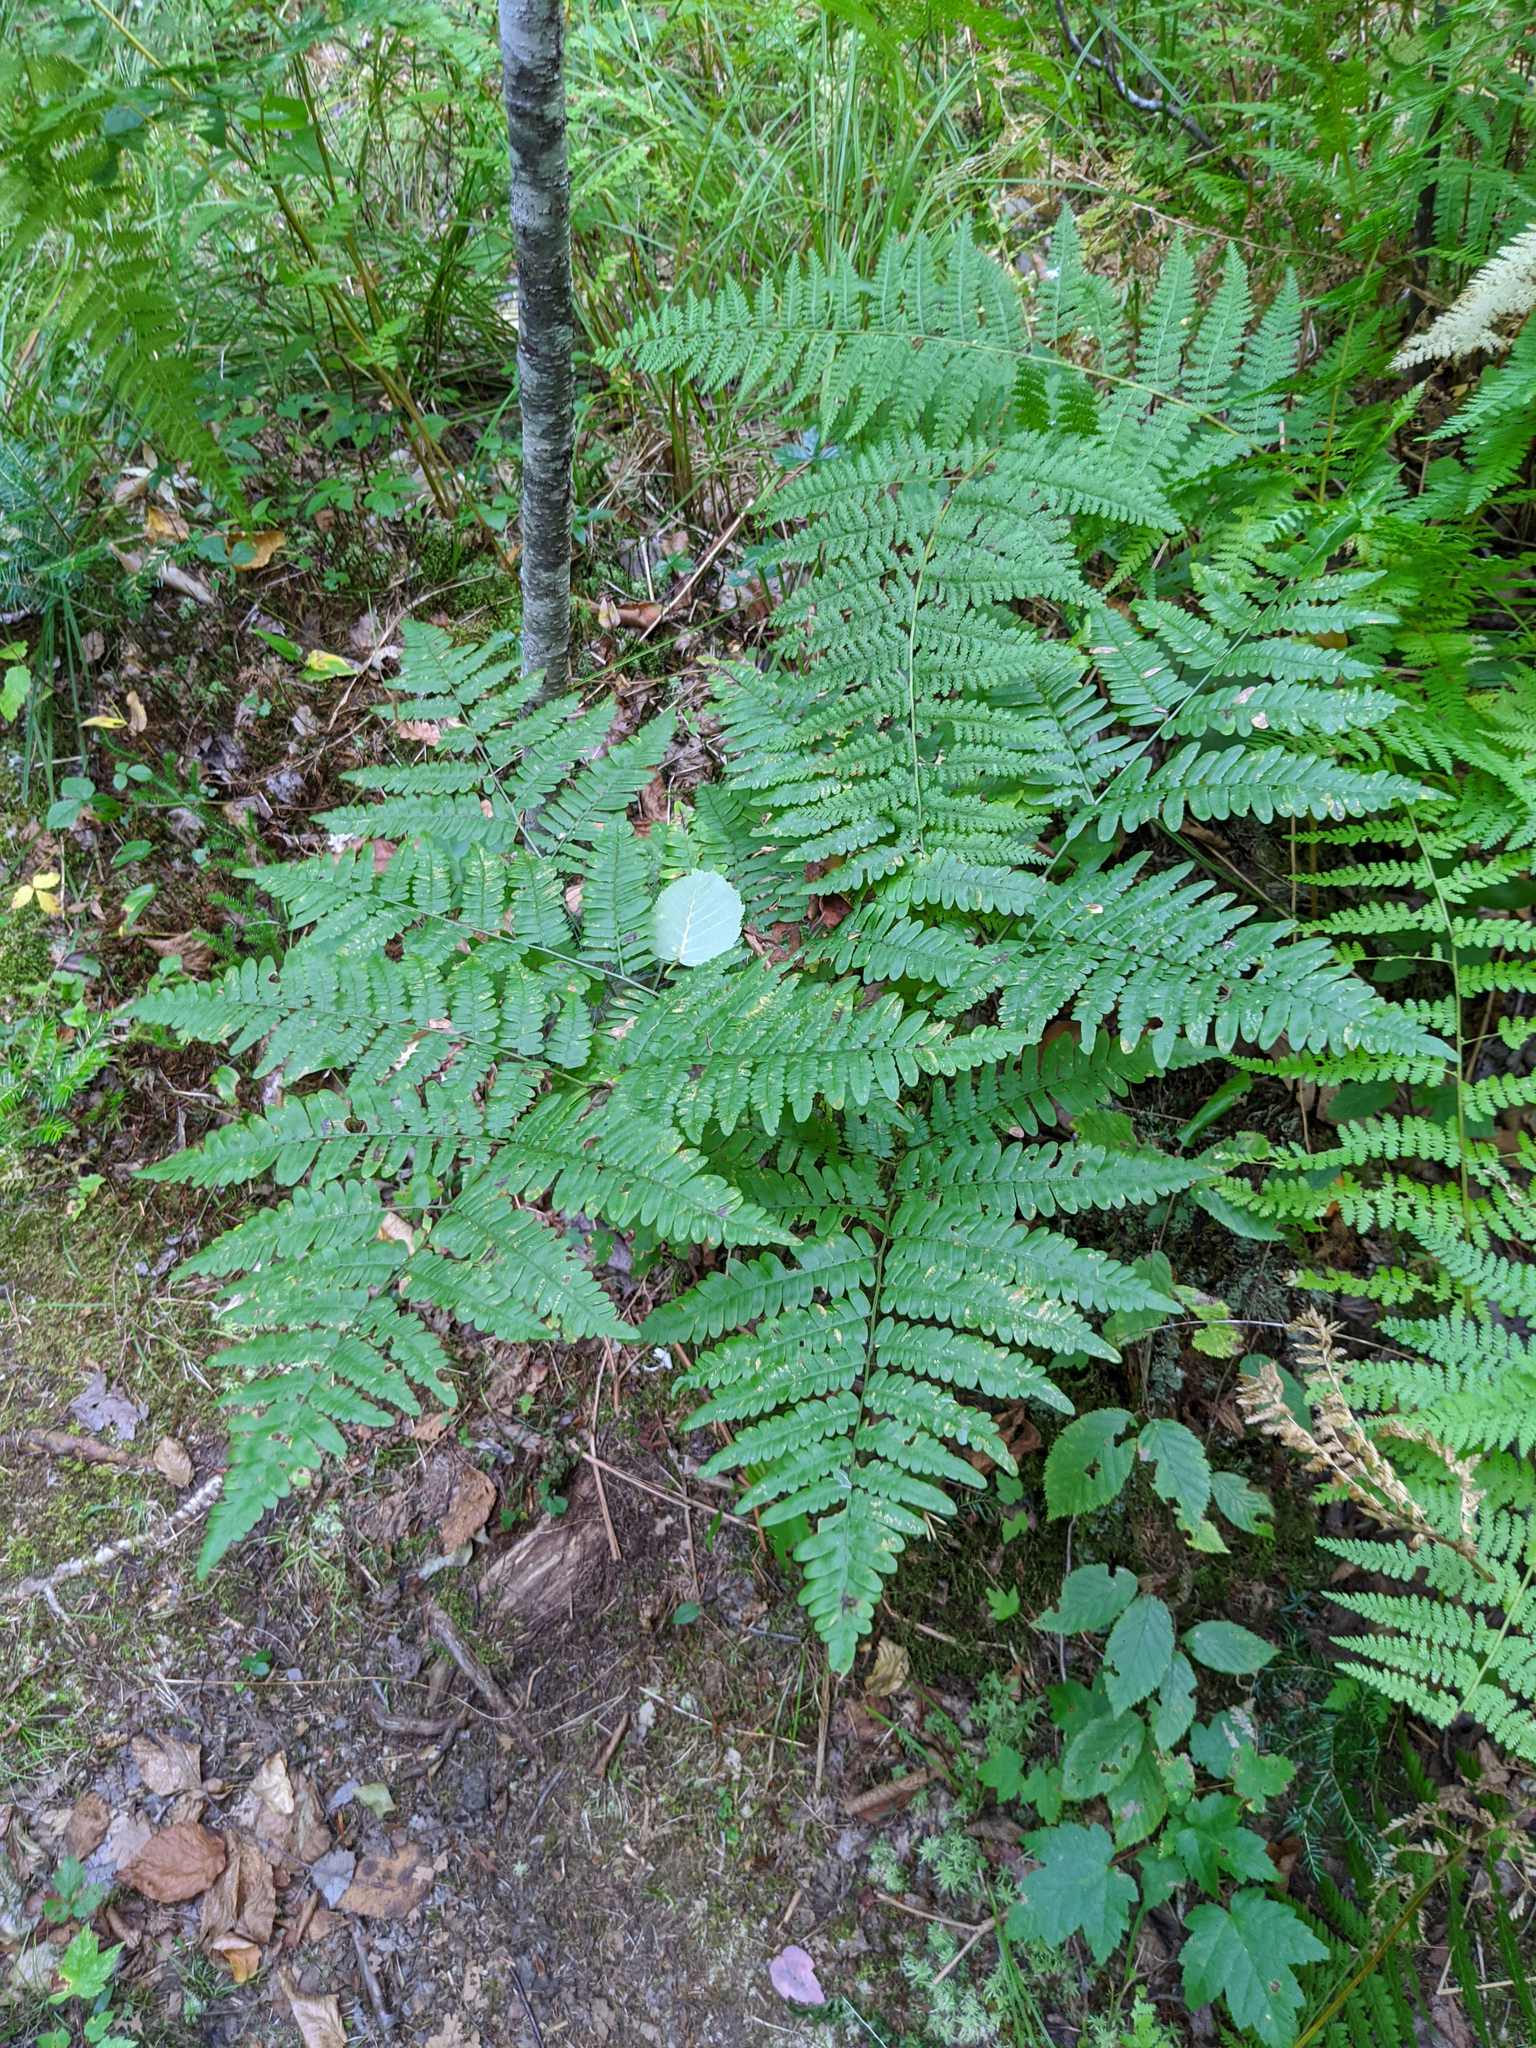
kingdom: Plantae
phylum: Tracheophyta
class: Polypodiopsida
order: Polypodiales
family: Dennstaedtiaceae
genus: Pteridium
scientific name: Pteridium aquilinum
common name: Bracken
